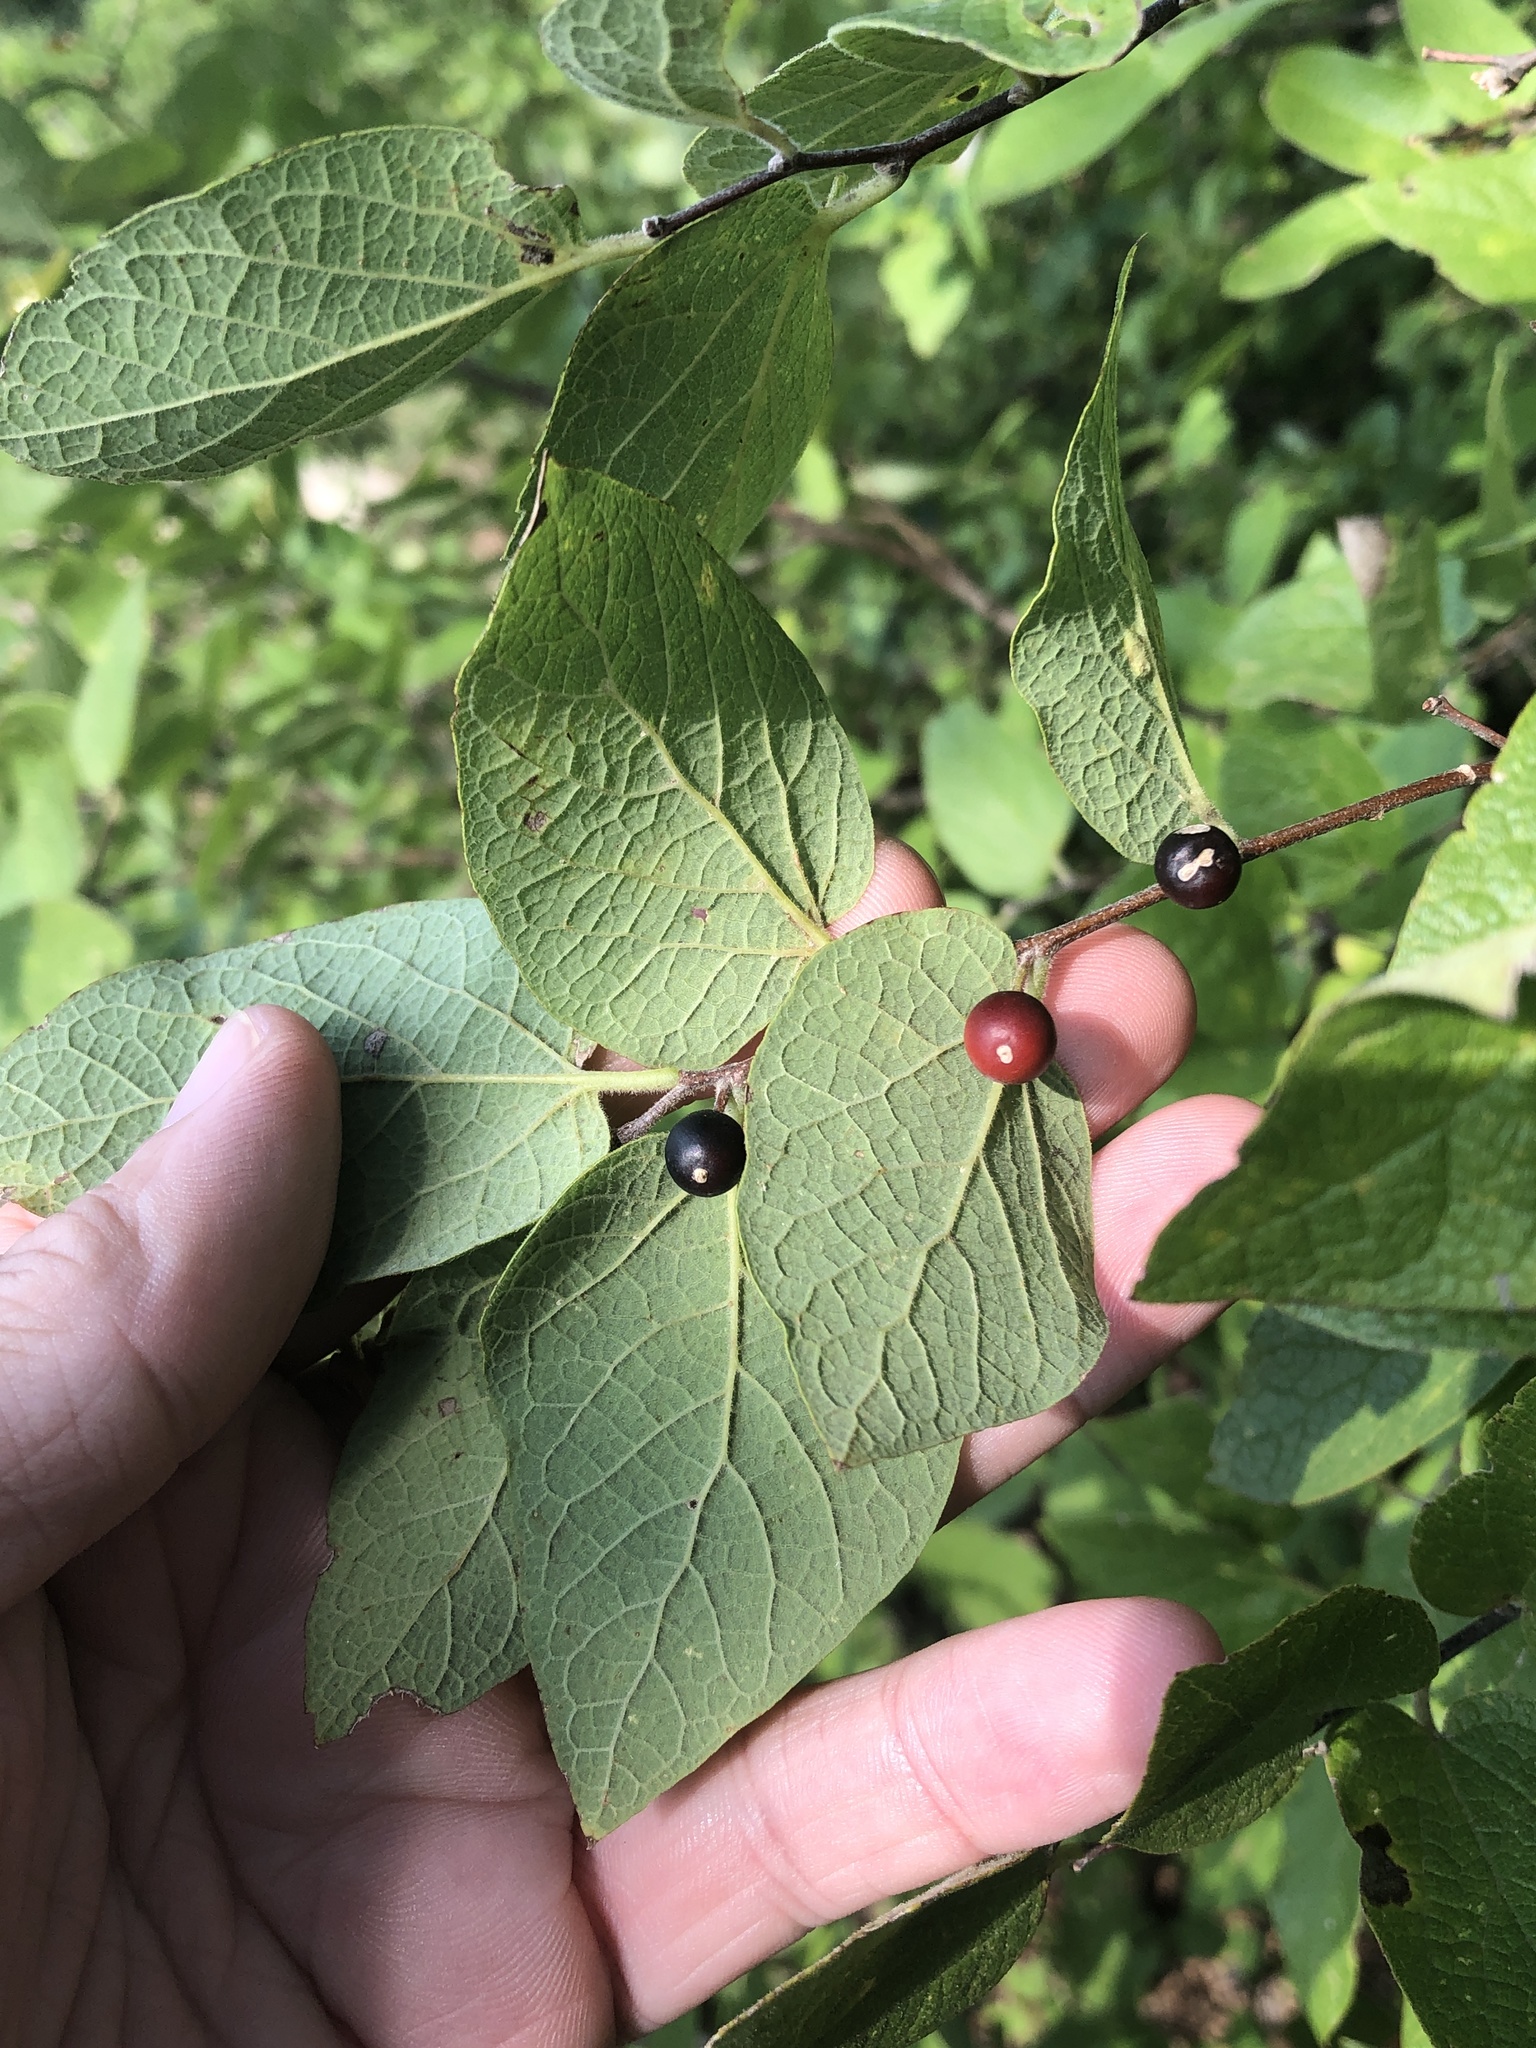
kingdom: Plantae
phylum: Tracheophyta
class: Magnoliopsida
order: Rosales
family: Cannabaceae
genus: Celtis
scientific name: Celtis reticulata
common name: Netleaf hackberry
